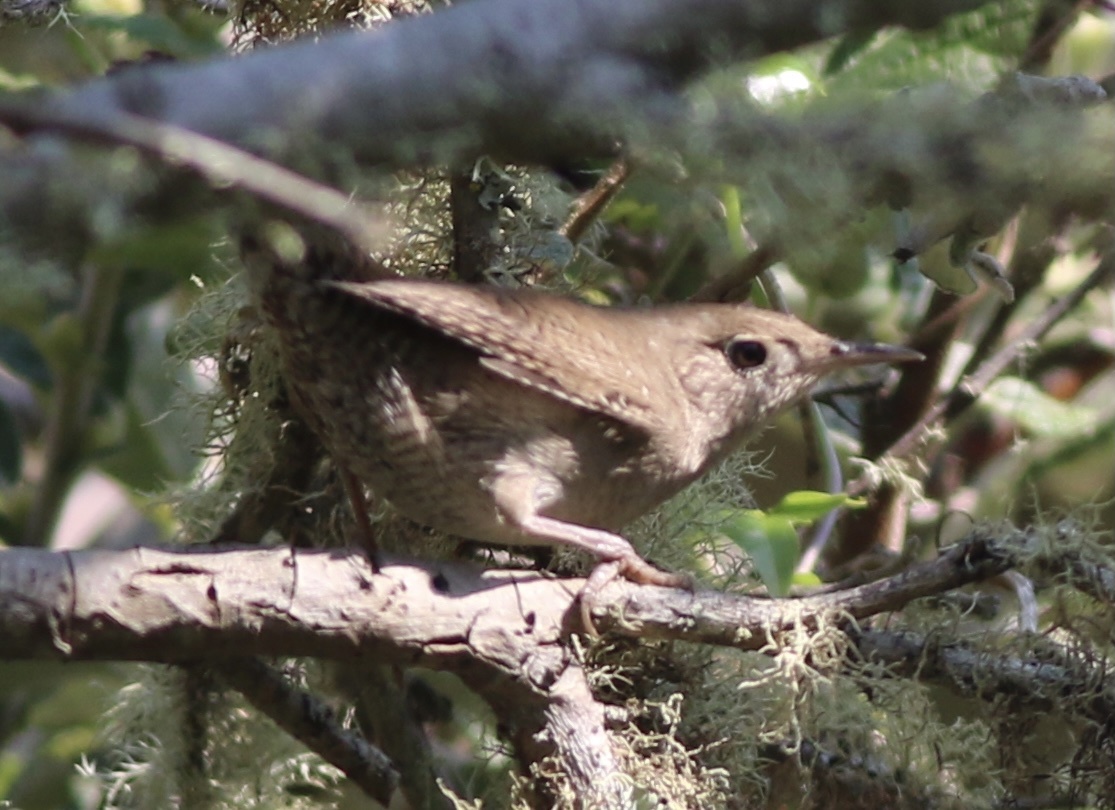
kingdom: Animalia
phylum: Chordata
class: Aves
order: Passeriformes
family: Troglodytidae
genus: Troglodytes
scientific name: Troglodytes aedon
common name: House wren
